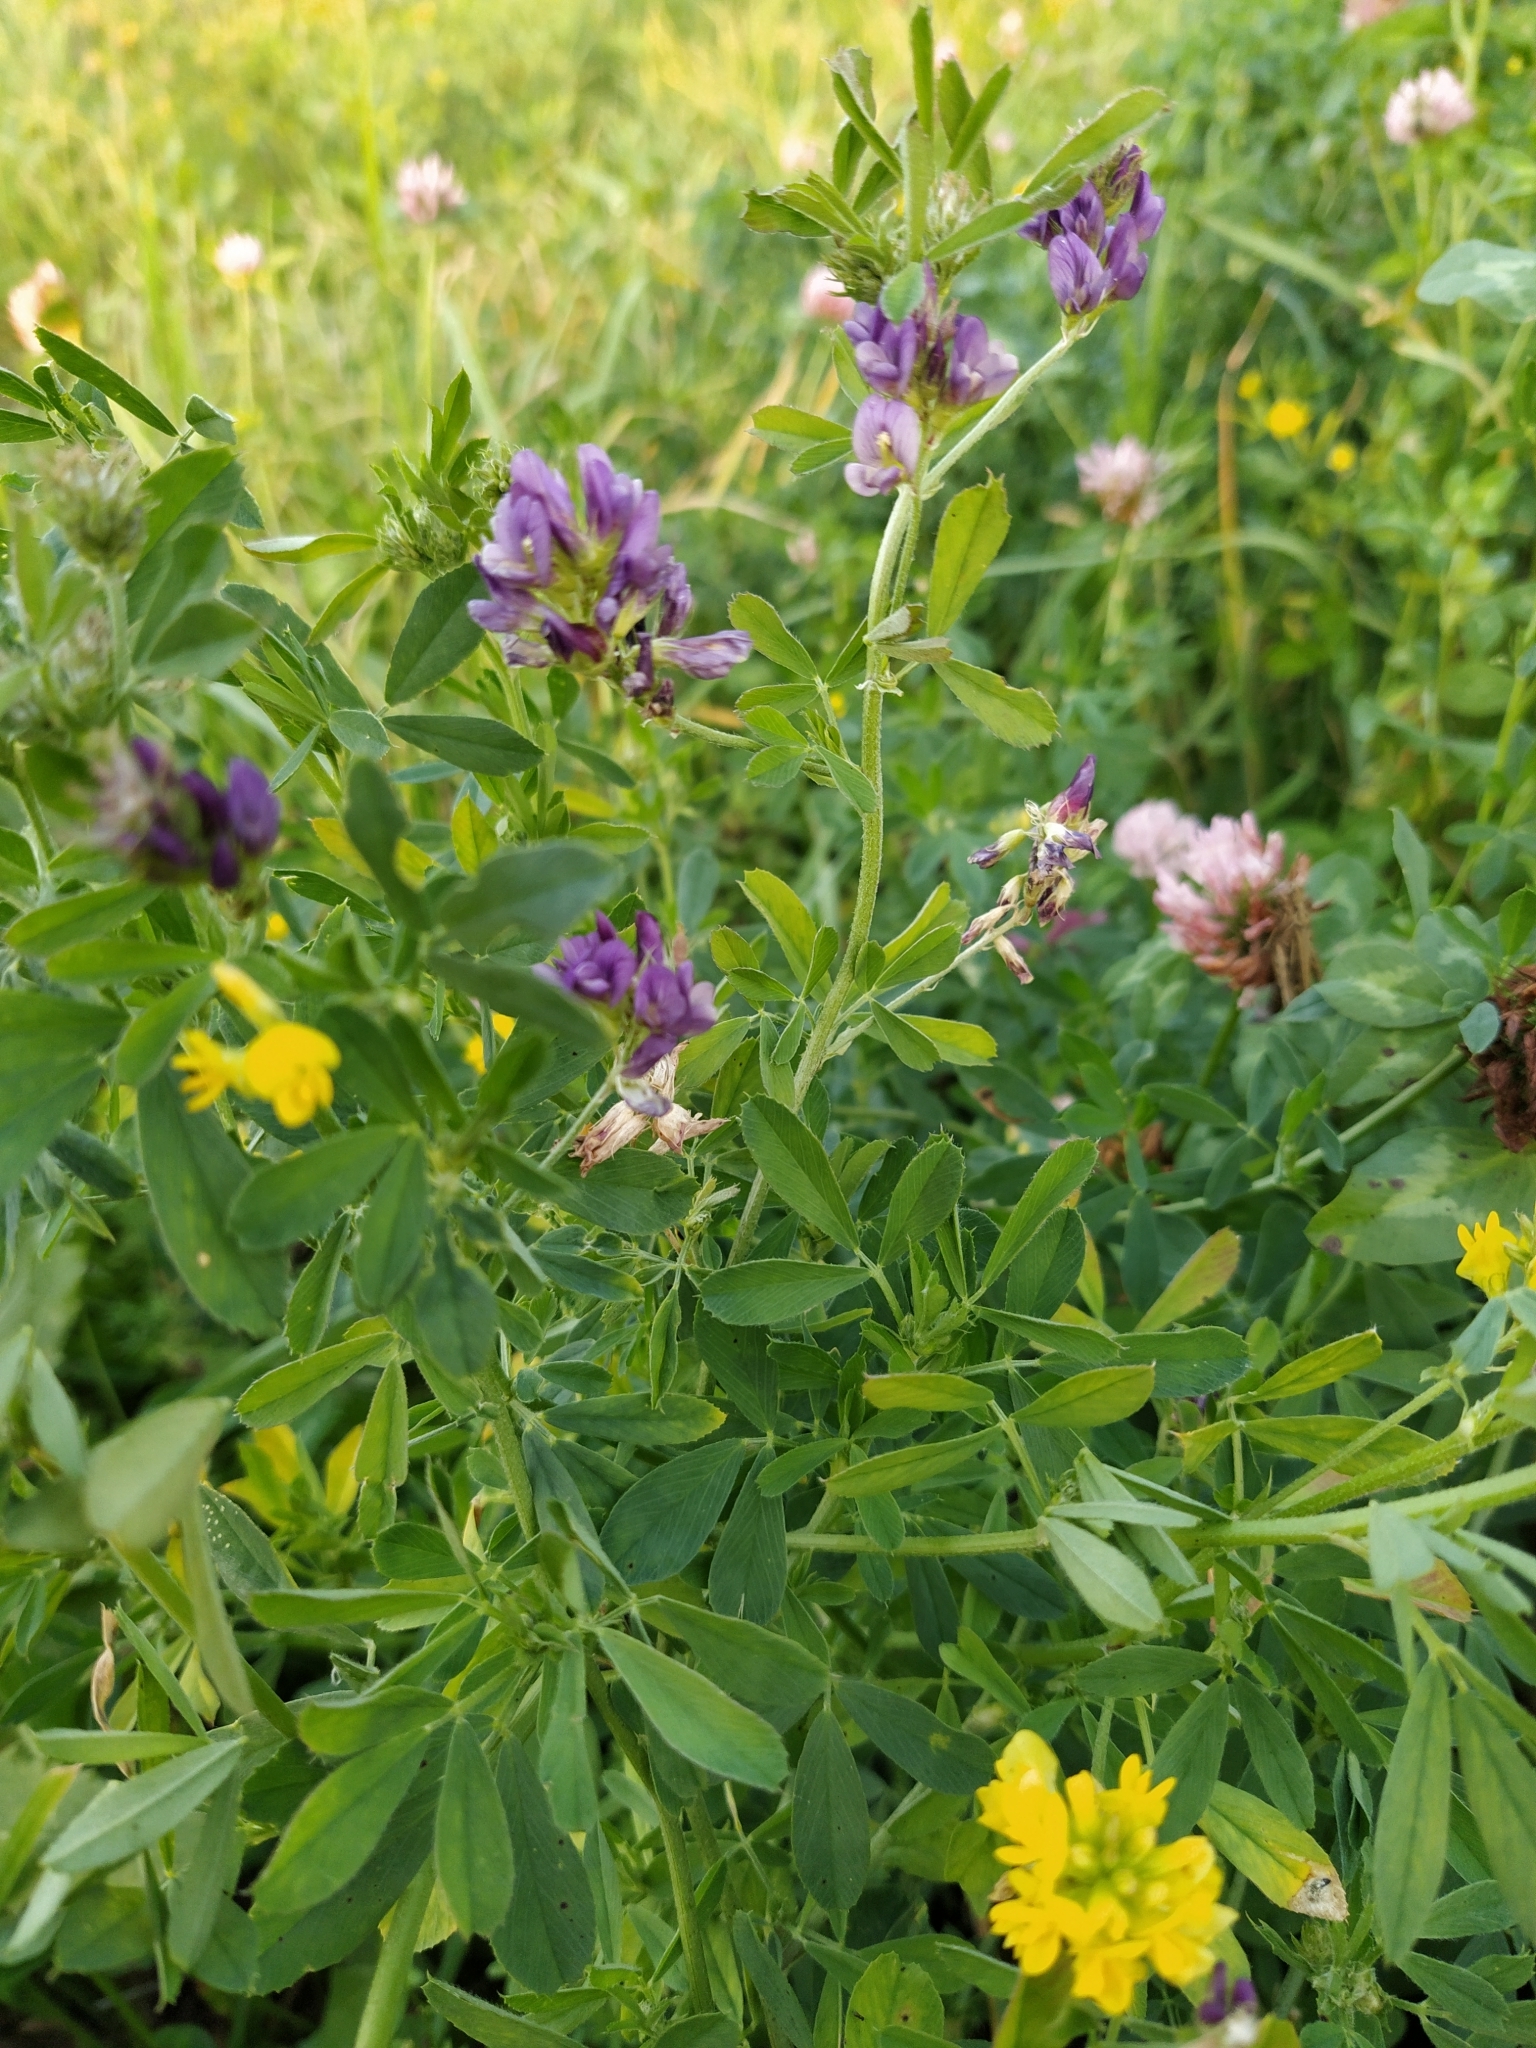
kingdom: Plantae
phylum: Tracheophyta
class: Magnoliopsida
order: Fabales
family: Fabaceae
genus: Medicago
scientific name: Medicago varia
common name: Sand lucerne
